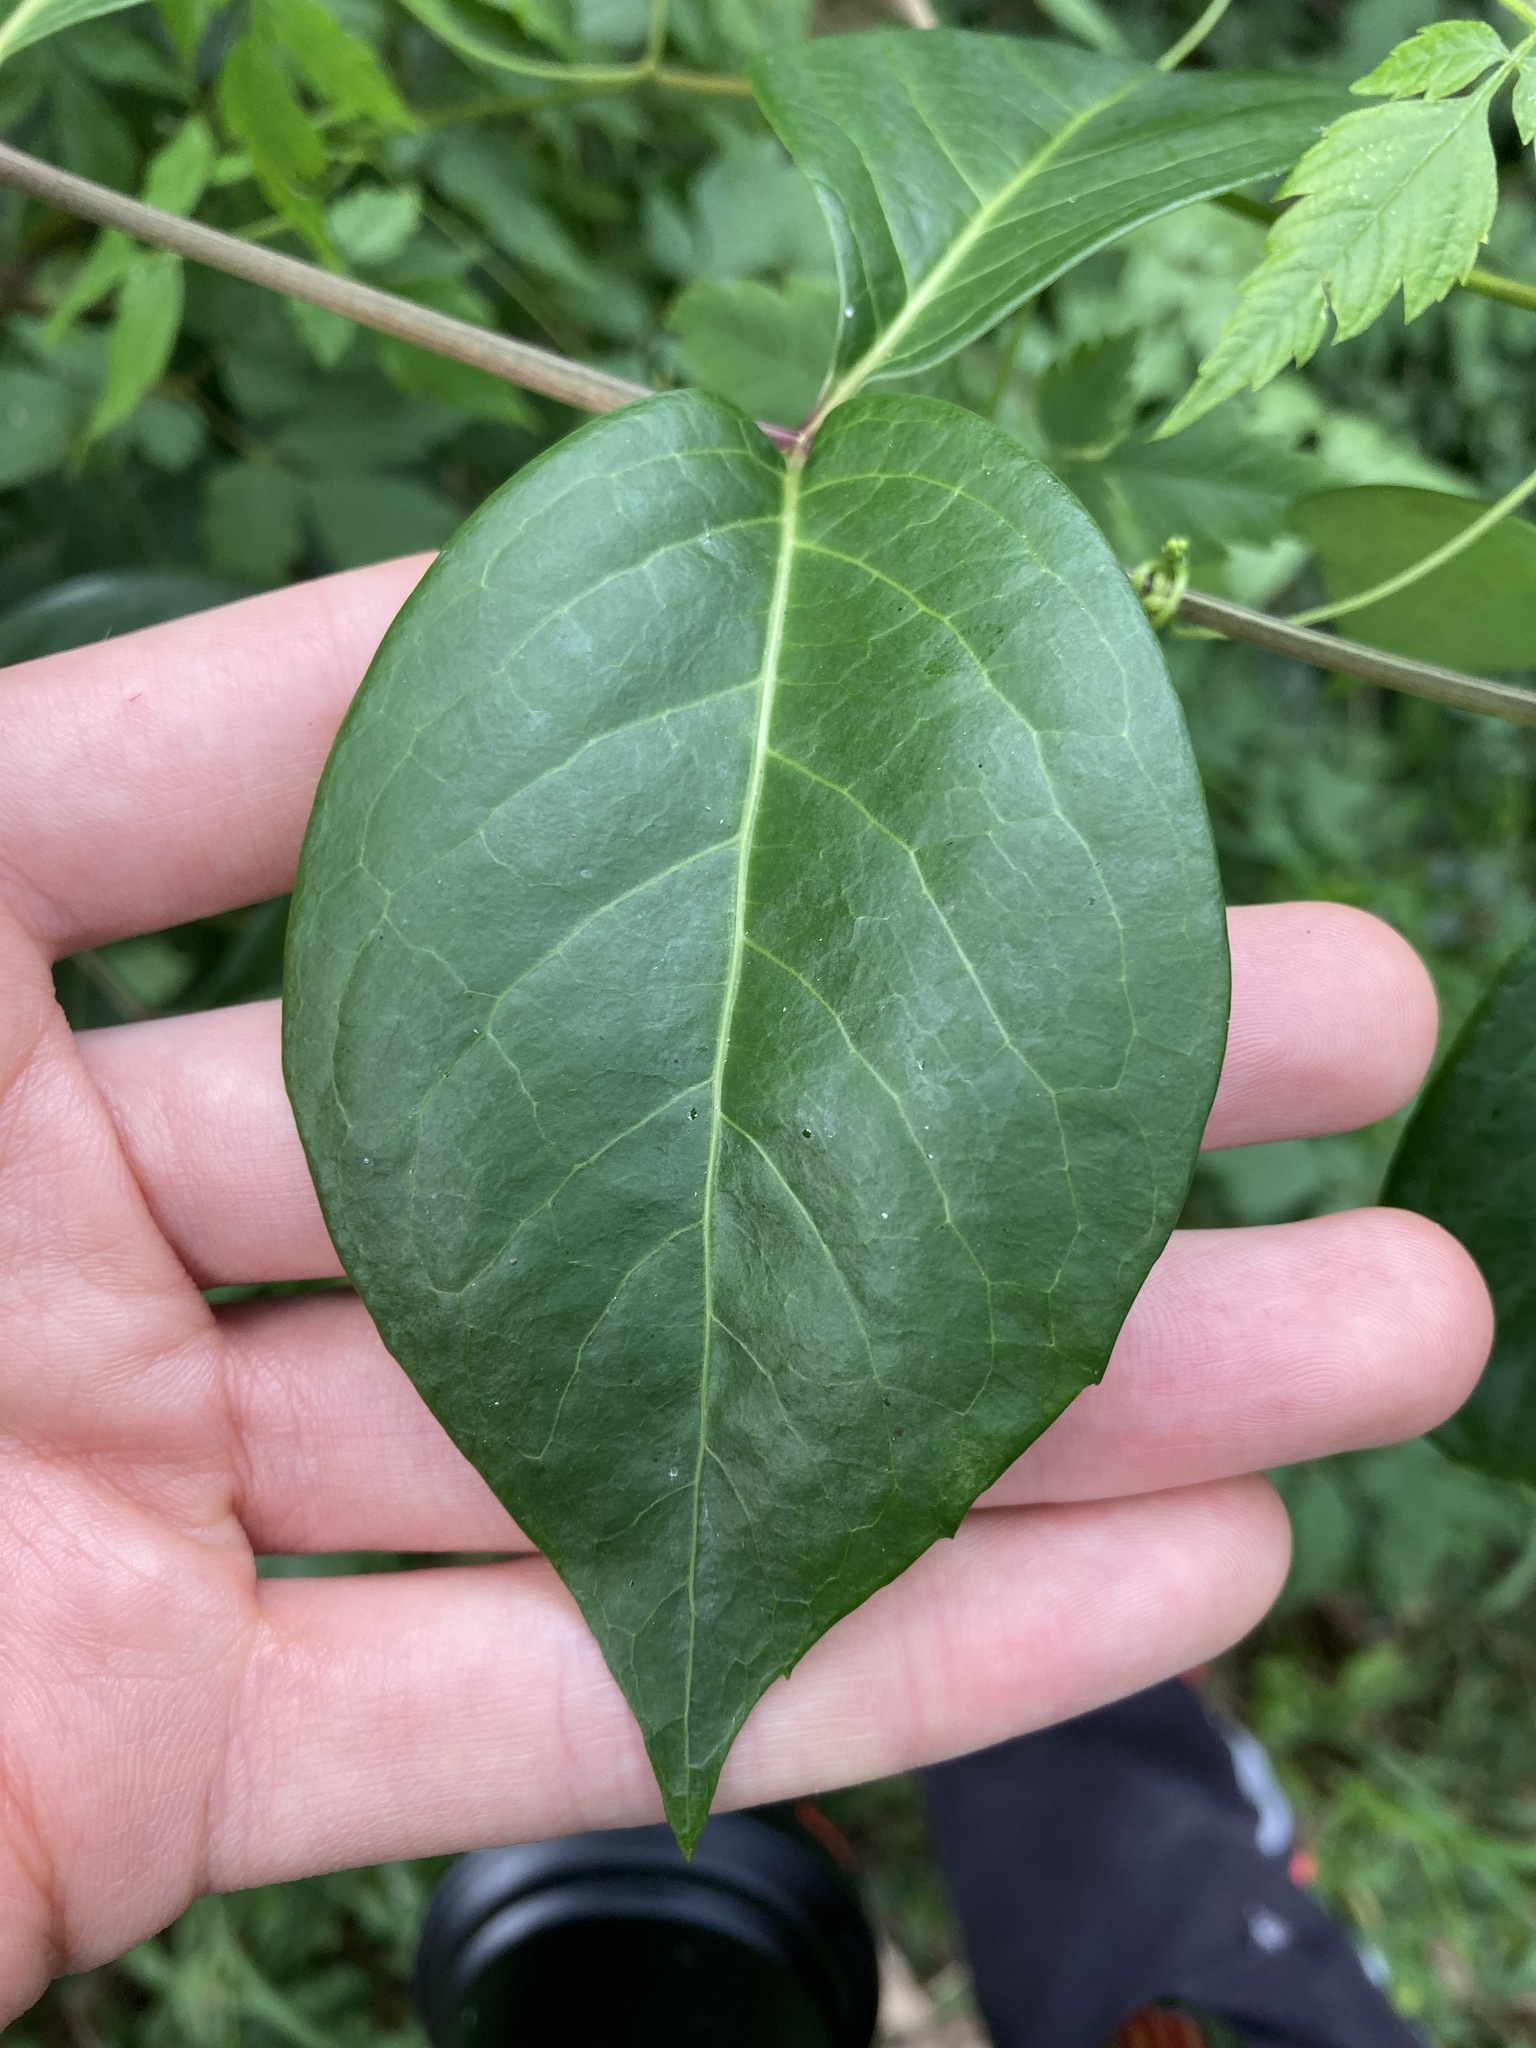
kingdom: Plantae
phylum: Tracheophyta
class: Magnoliopsida
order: Apiales
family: Araliaceae
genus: Polyscias
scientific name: Polyscias sambucifolia
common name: Elderberry-ash
